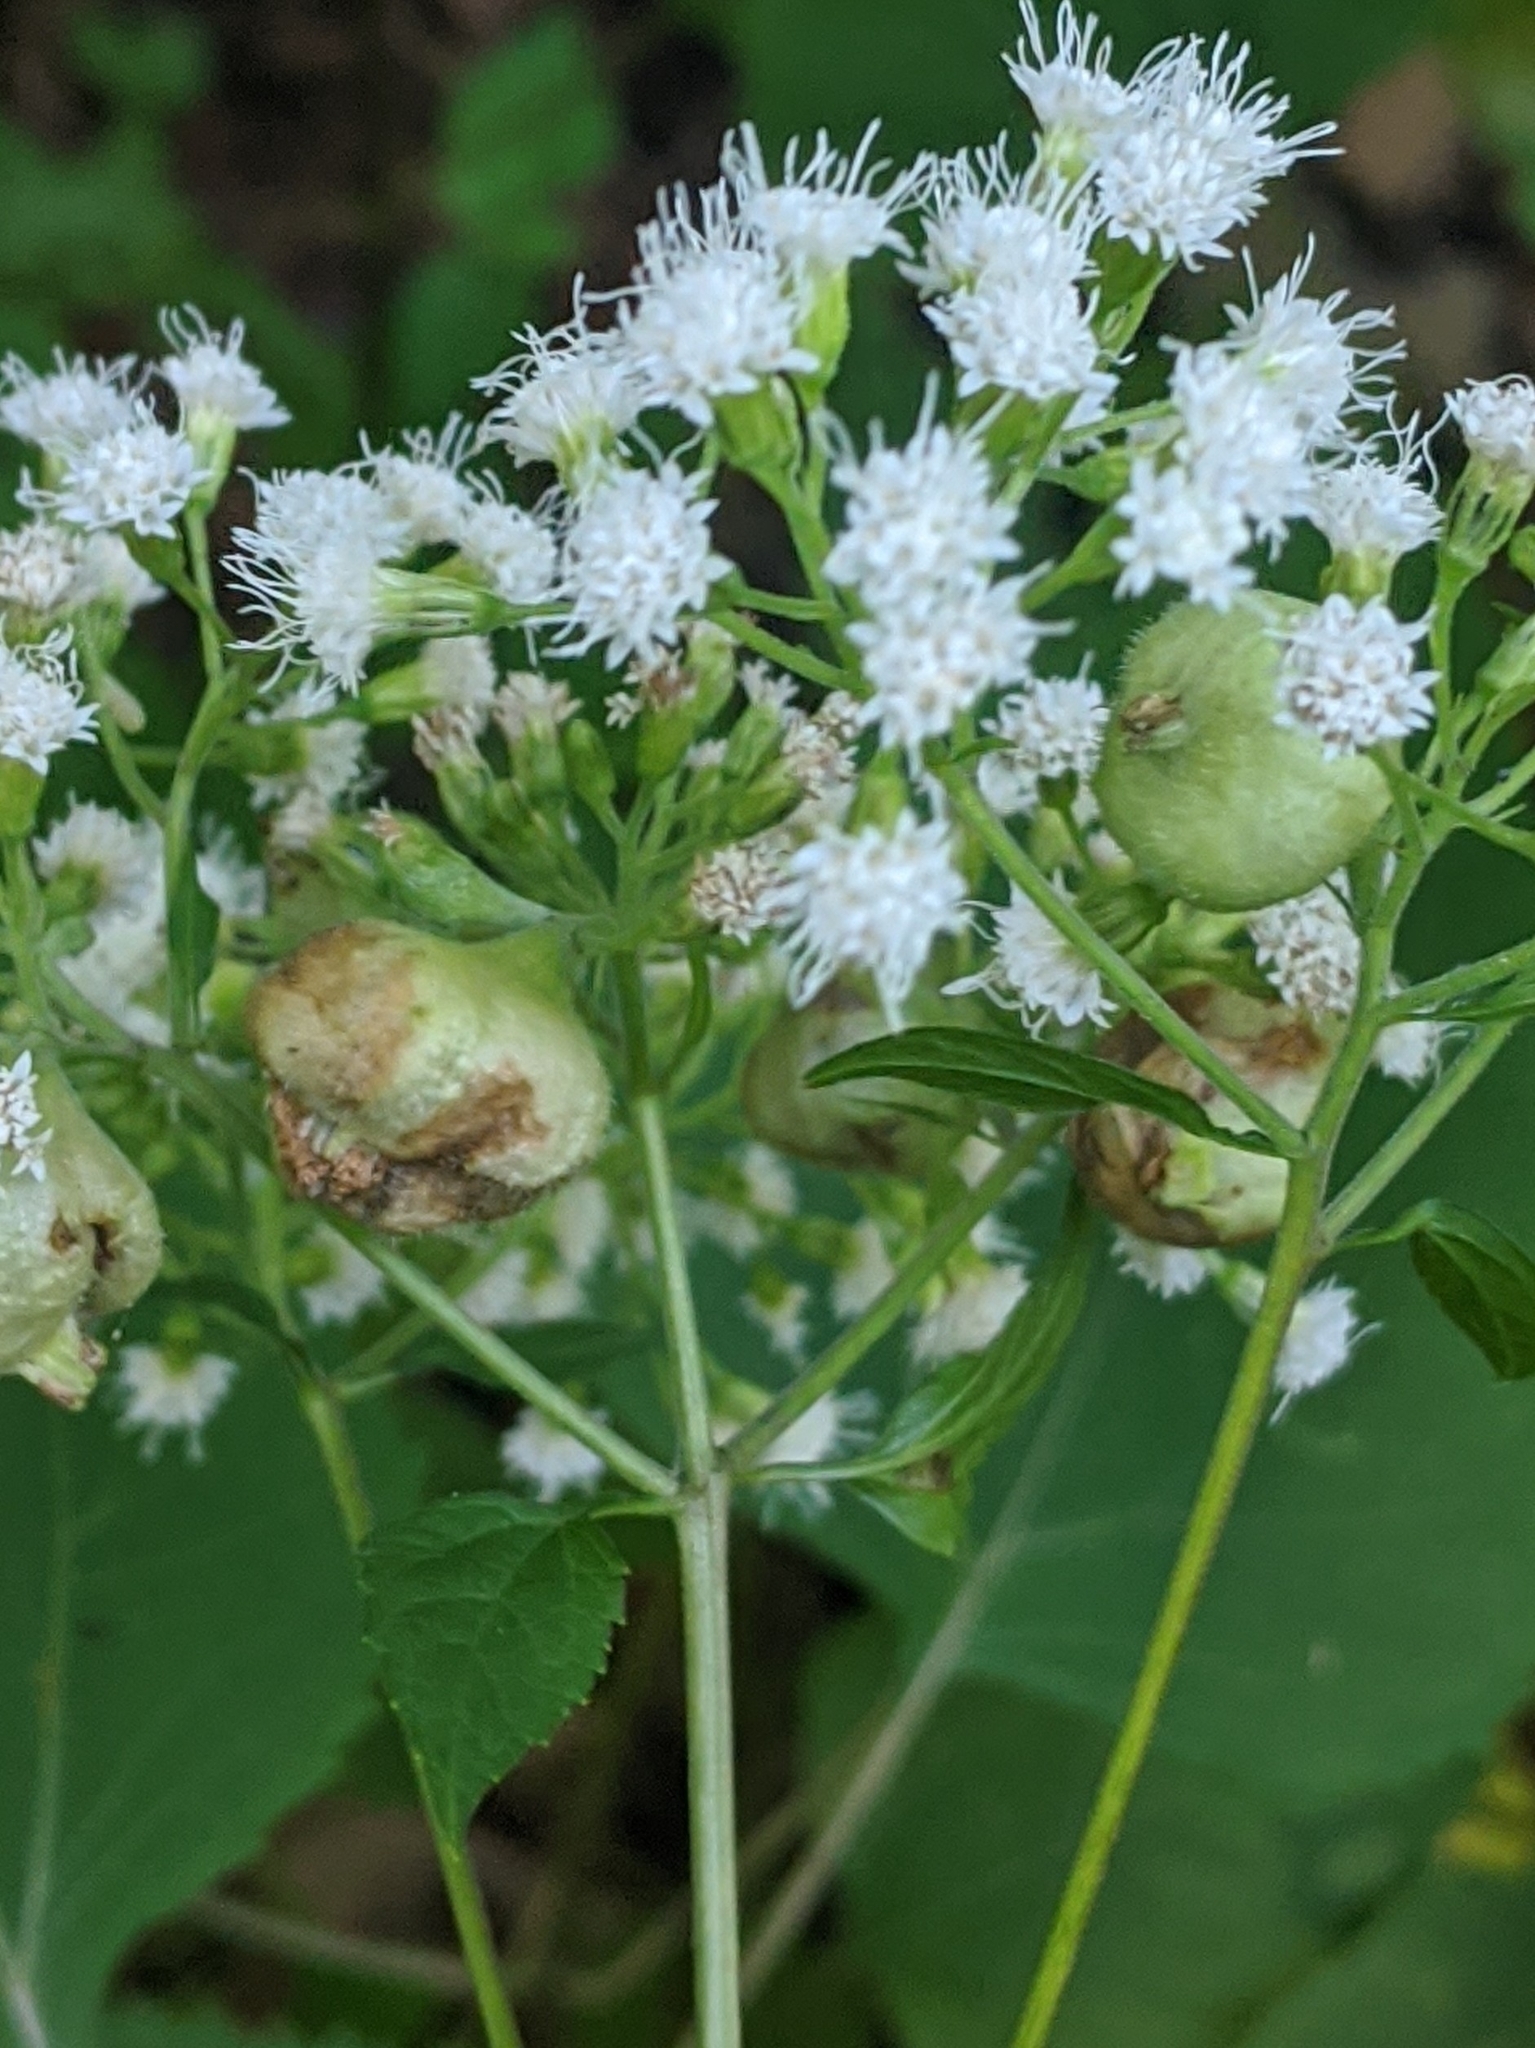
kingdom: Animalia
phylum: Arthropoda
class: Insecta
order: Diptera
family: Cecidomyiidae
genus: Schizomyia
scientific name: Schizomyia eupatoriflorae
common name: Boneset flower gall midge
